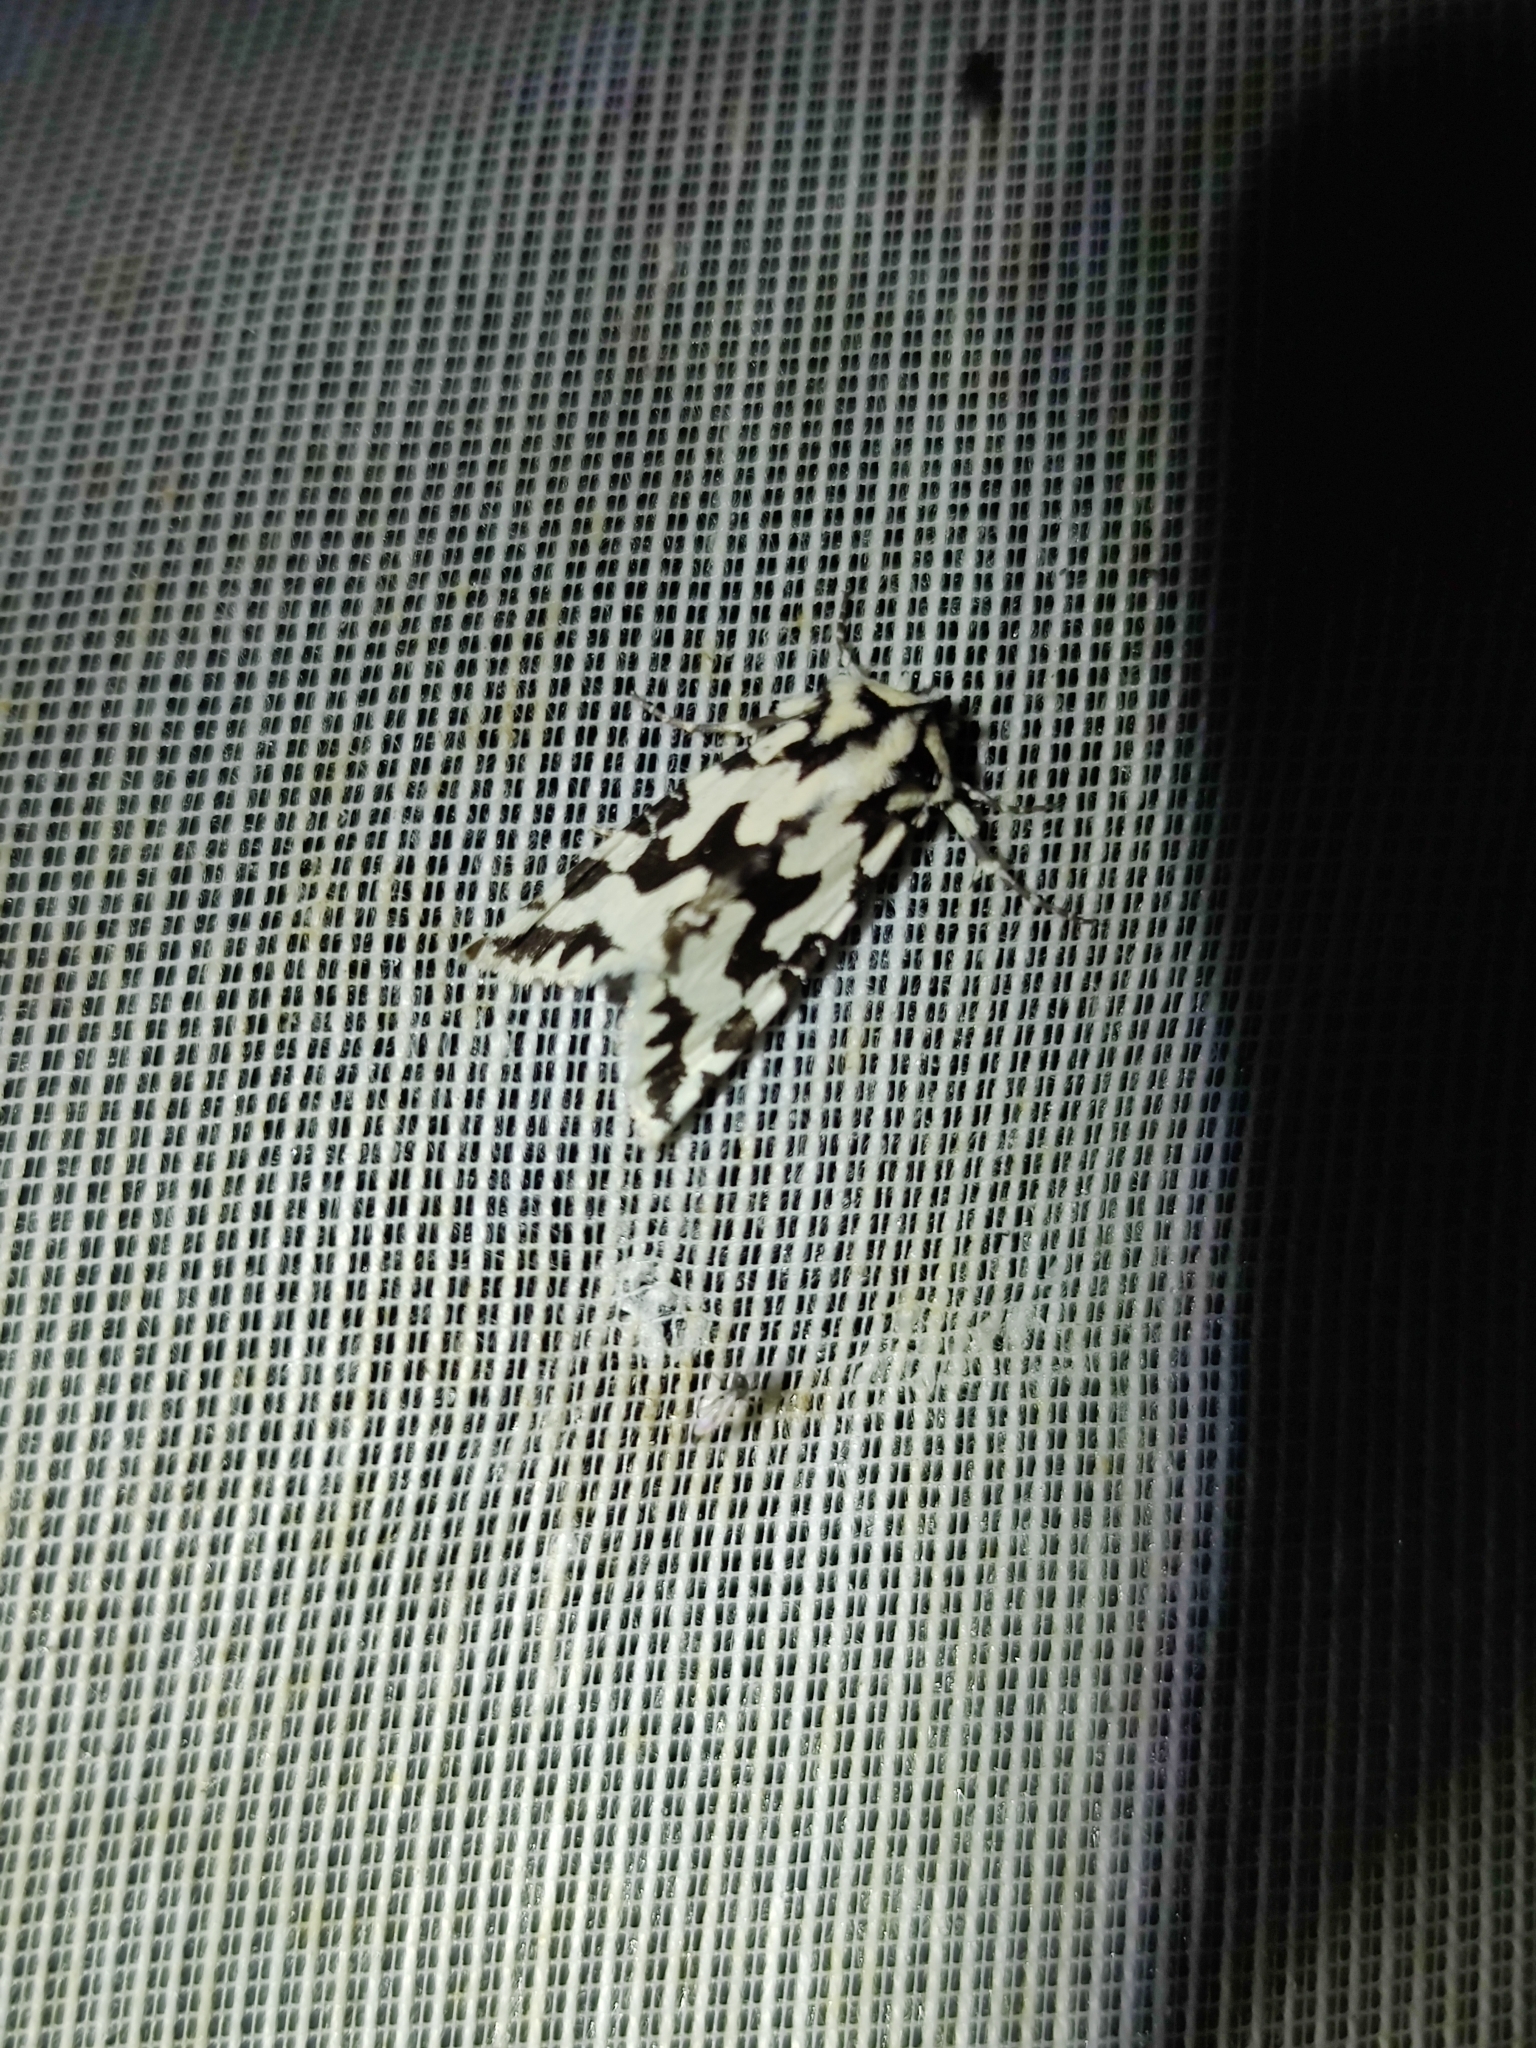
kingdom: Animalia
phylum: Arthropoda
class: Insecta
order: Lepidoptera
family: Noctuidae
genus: Phlogophora
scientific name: Phlogophora distorta
